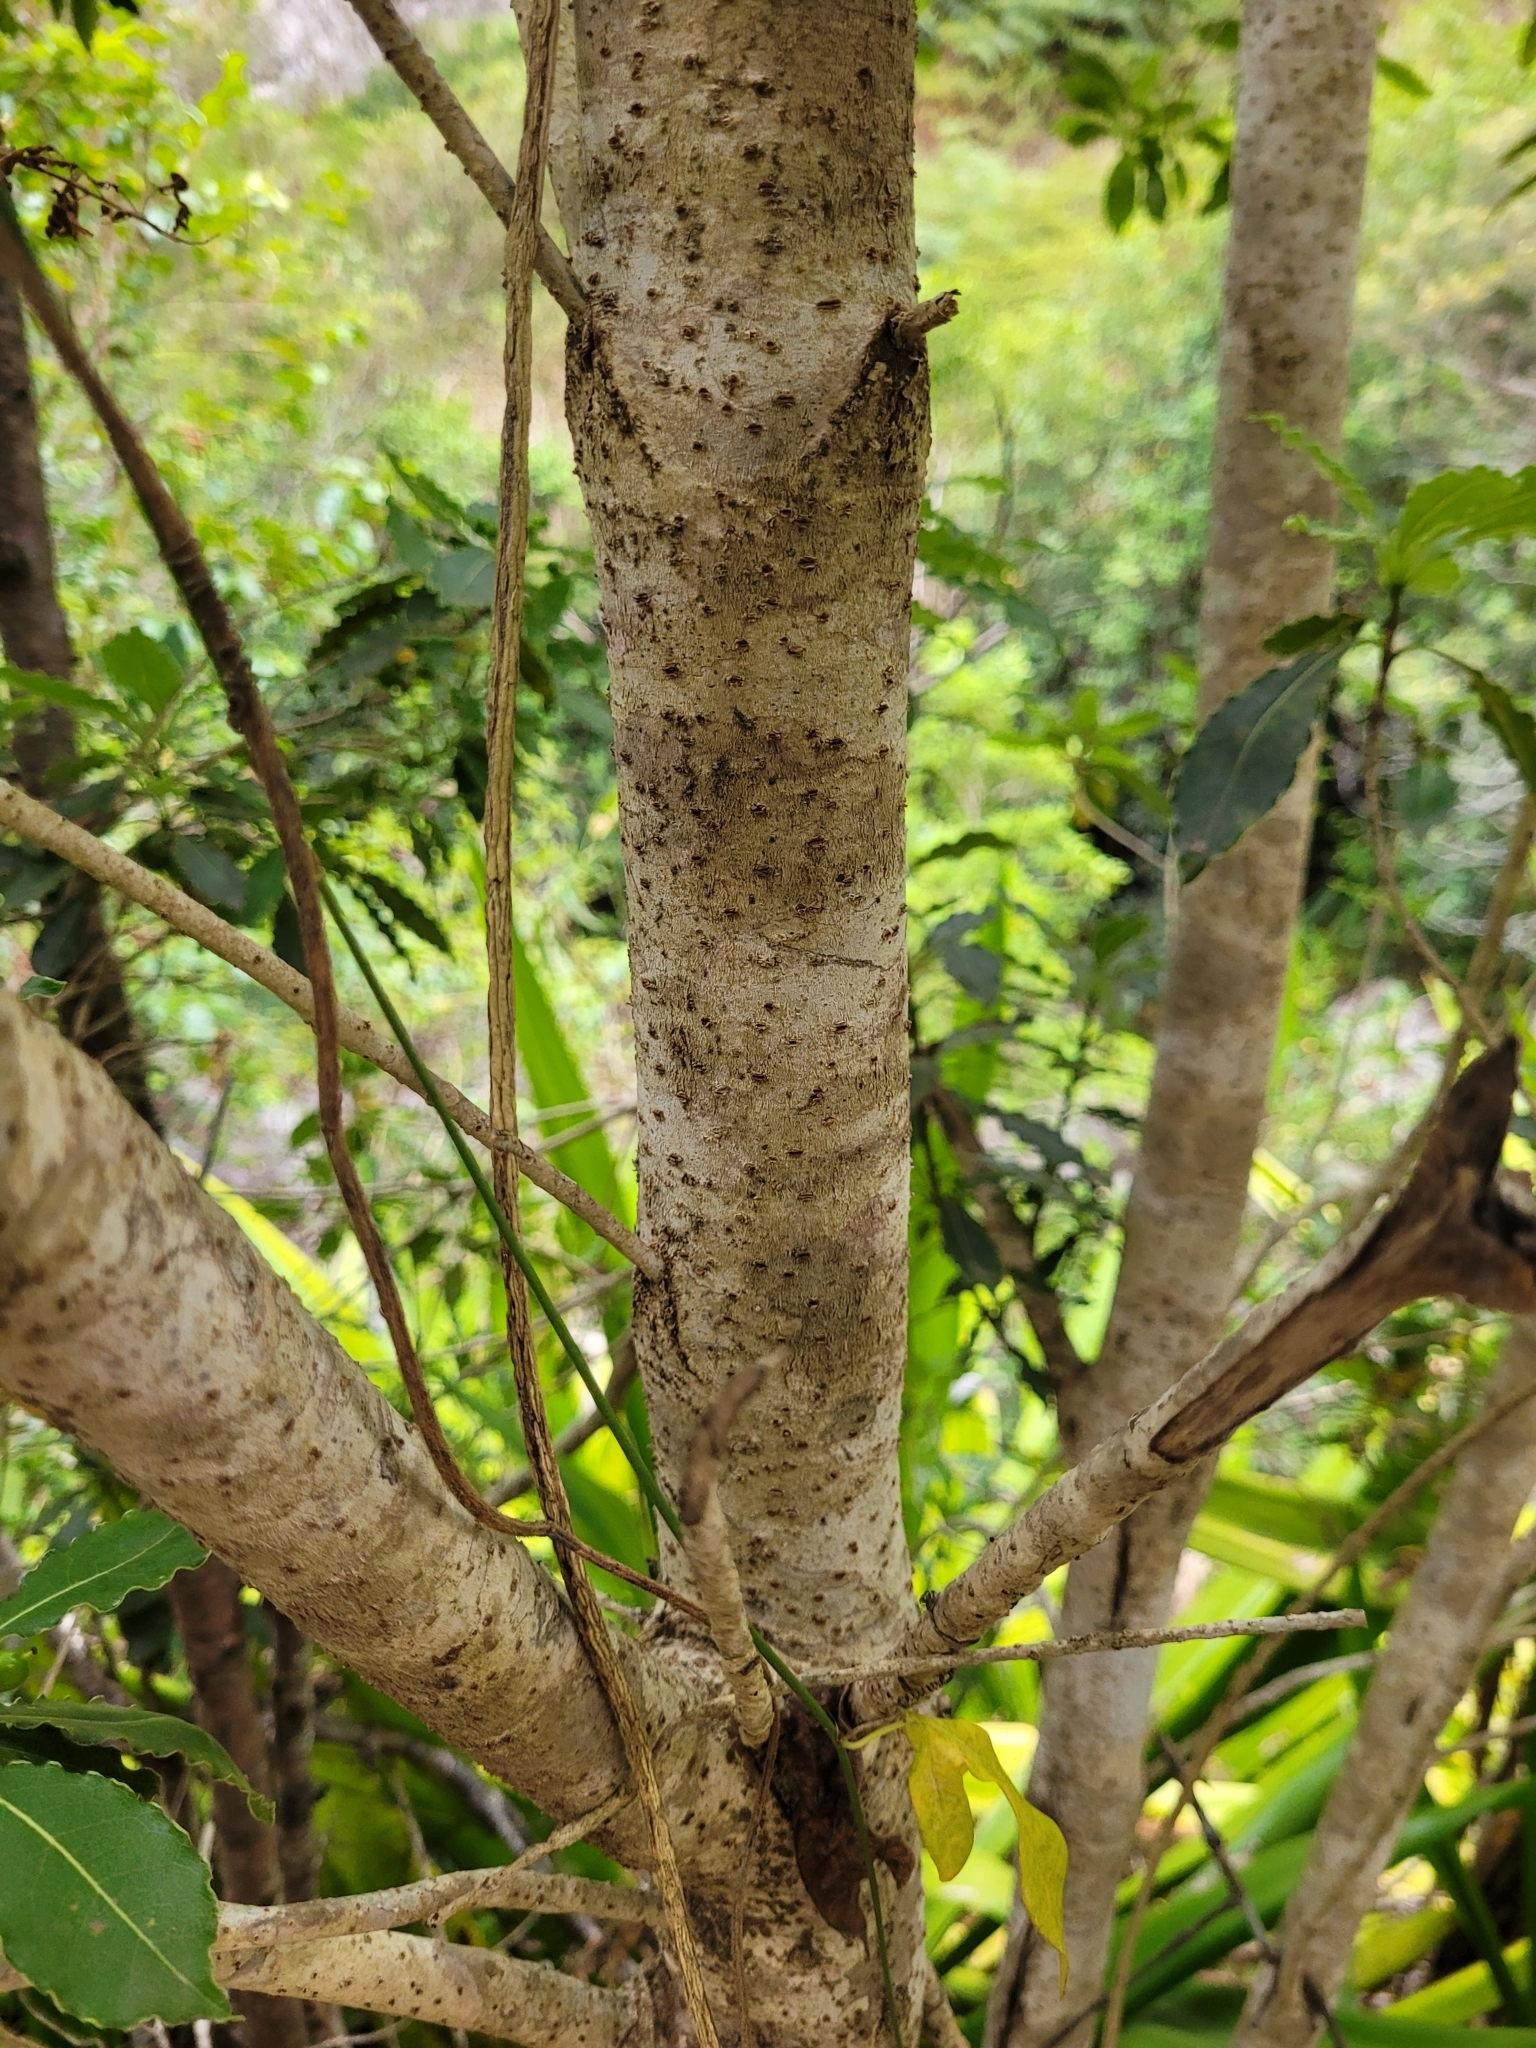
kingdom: Plantae
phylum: Tracheophyta
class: Magnoliopsida
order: Apiales
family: Pittosporaceae
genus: Pittosporum
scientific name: Pittosporum senacia
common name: Cheesewood
